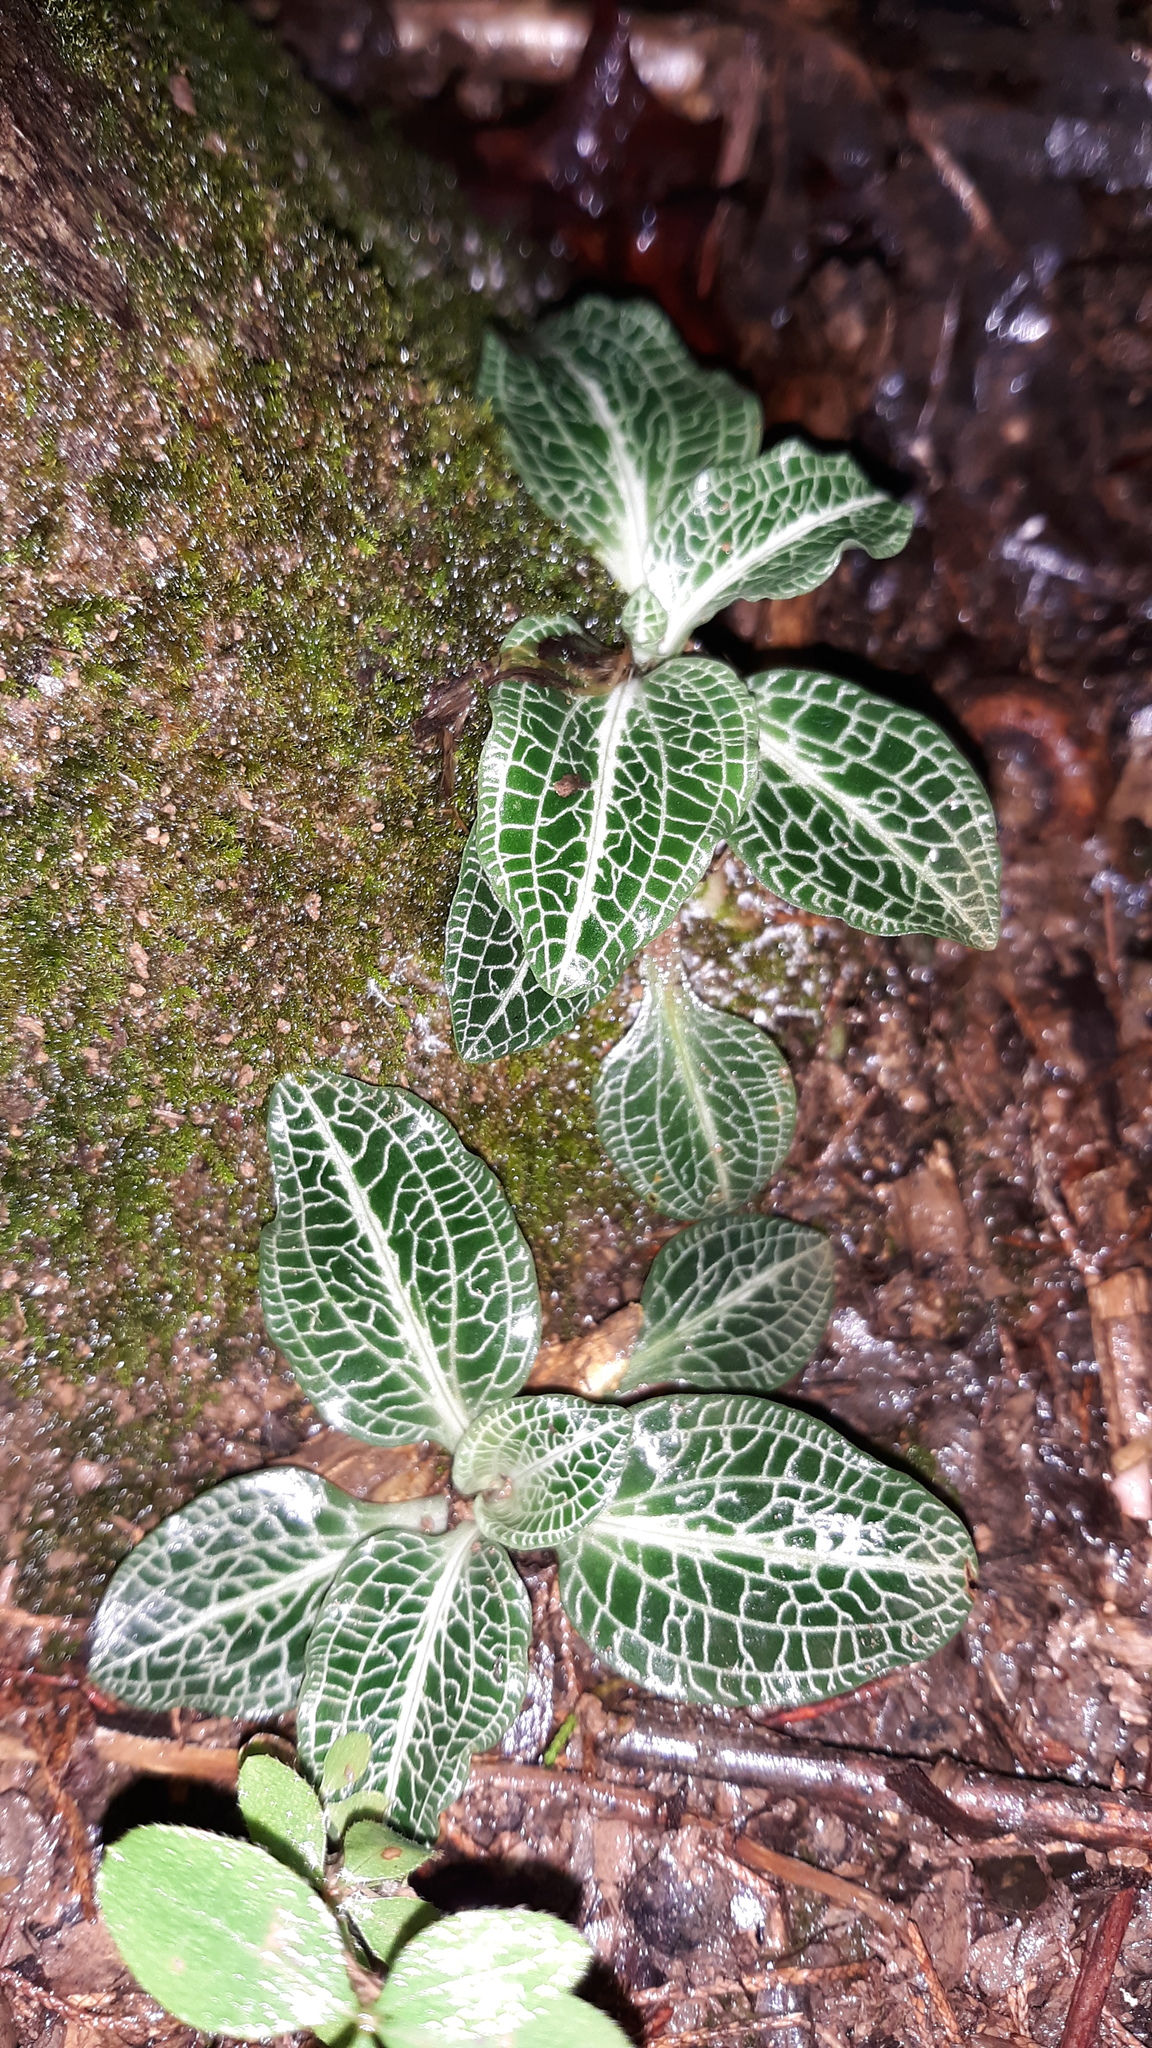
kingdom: Plantae
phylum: Tracheophyta
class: Liliopsida
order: Asparagales
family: Orchidaceae
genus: Goodyera
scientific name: Goodyera pubescens
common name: Downy rattlesnake-plantain
